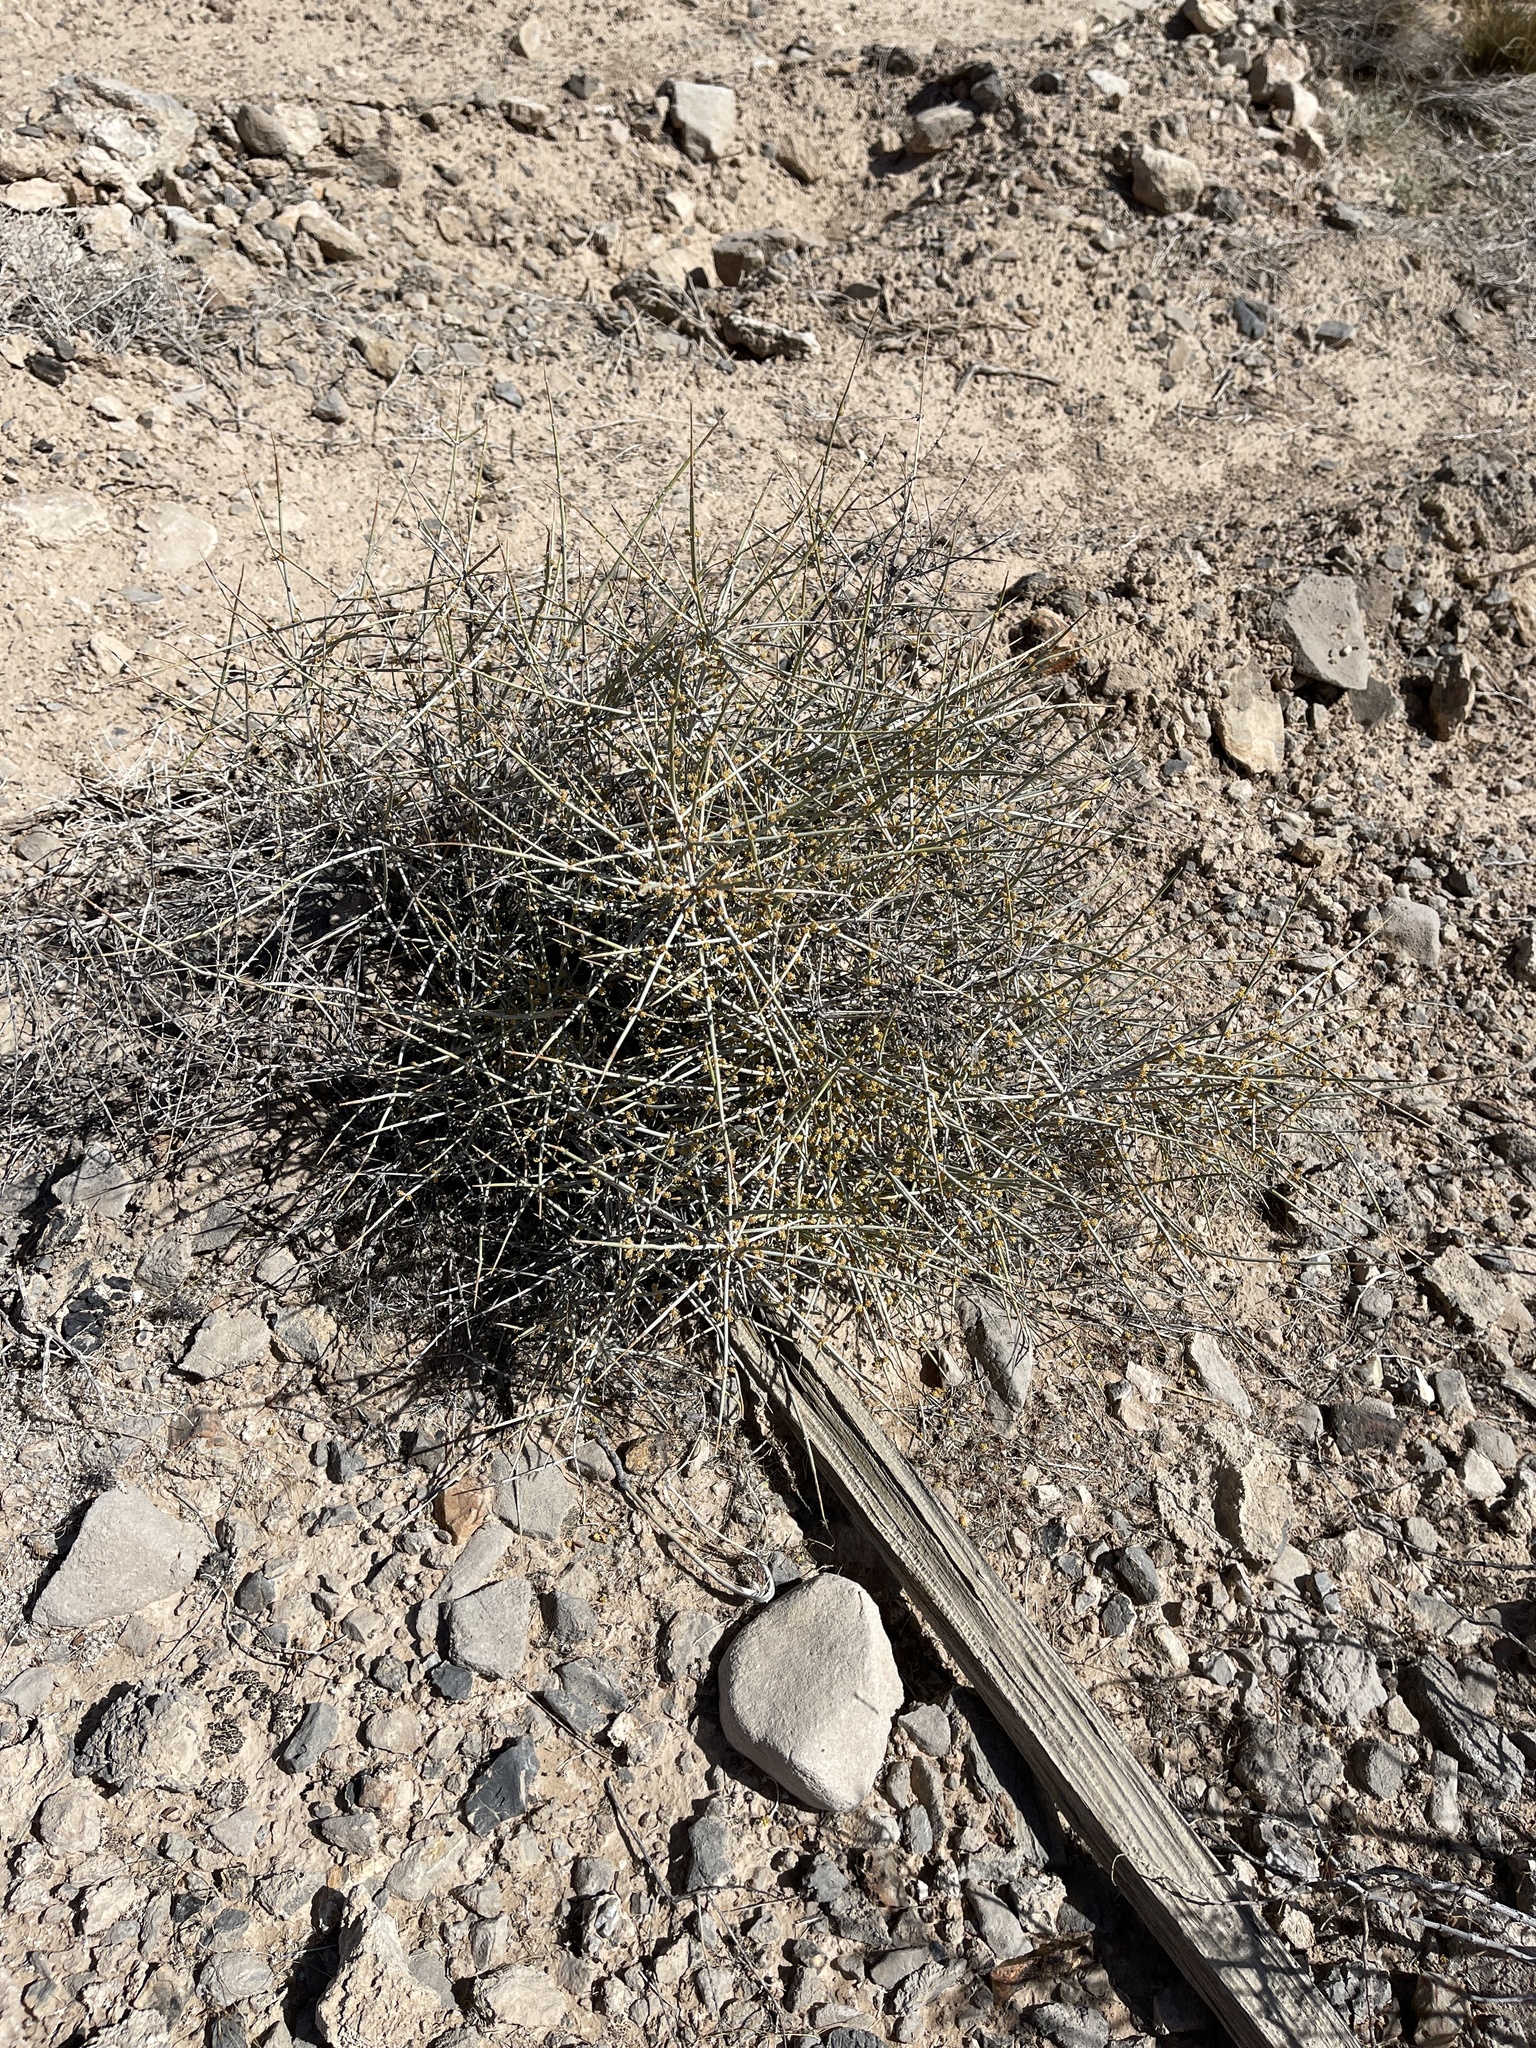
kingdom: Plantae
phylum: Tracheophyta
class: Gnetopsida
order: Ephedrales
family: Ephedraceae
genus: Ephedra
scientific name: Ephedra nevadensis
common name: Gray ephedra
